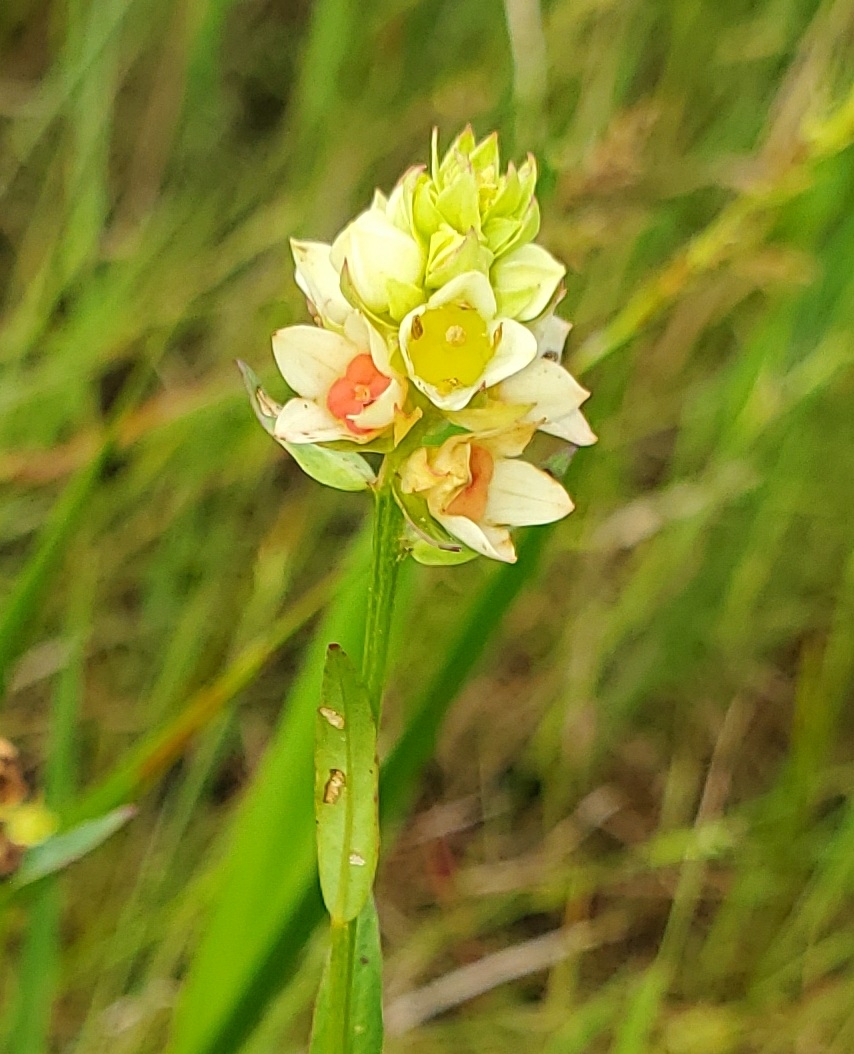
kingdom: Plantae
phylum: Tracheophyta
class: Magnoliopsida
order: Myrtales
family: Onagraceae
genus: Ludwigia
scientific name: Ludwigia suffruticosa
